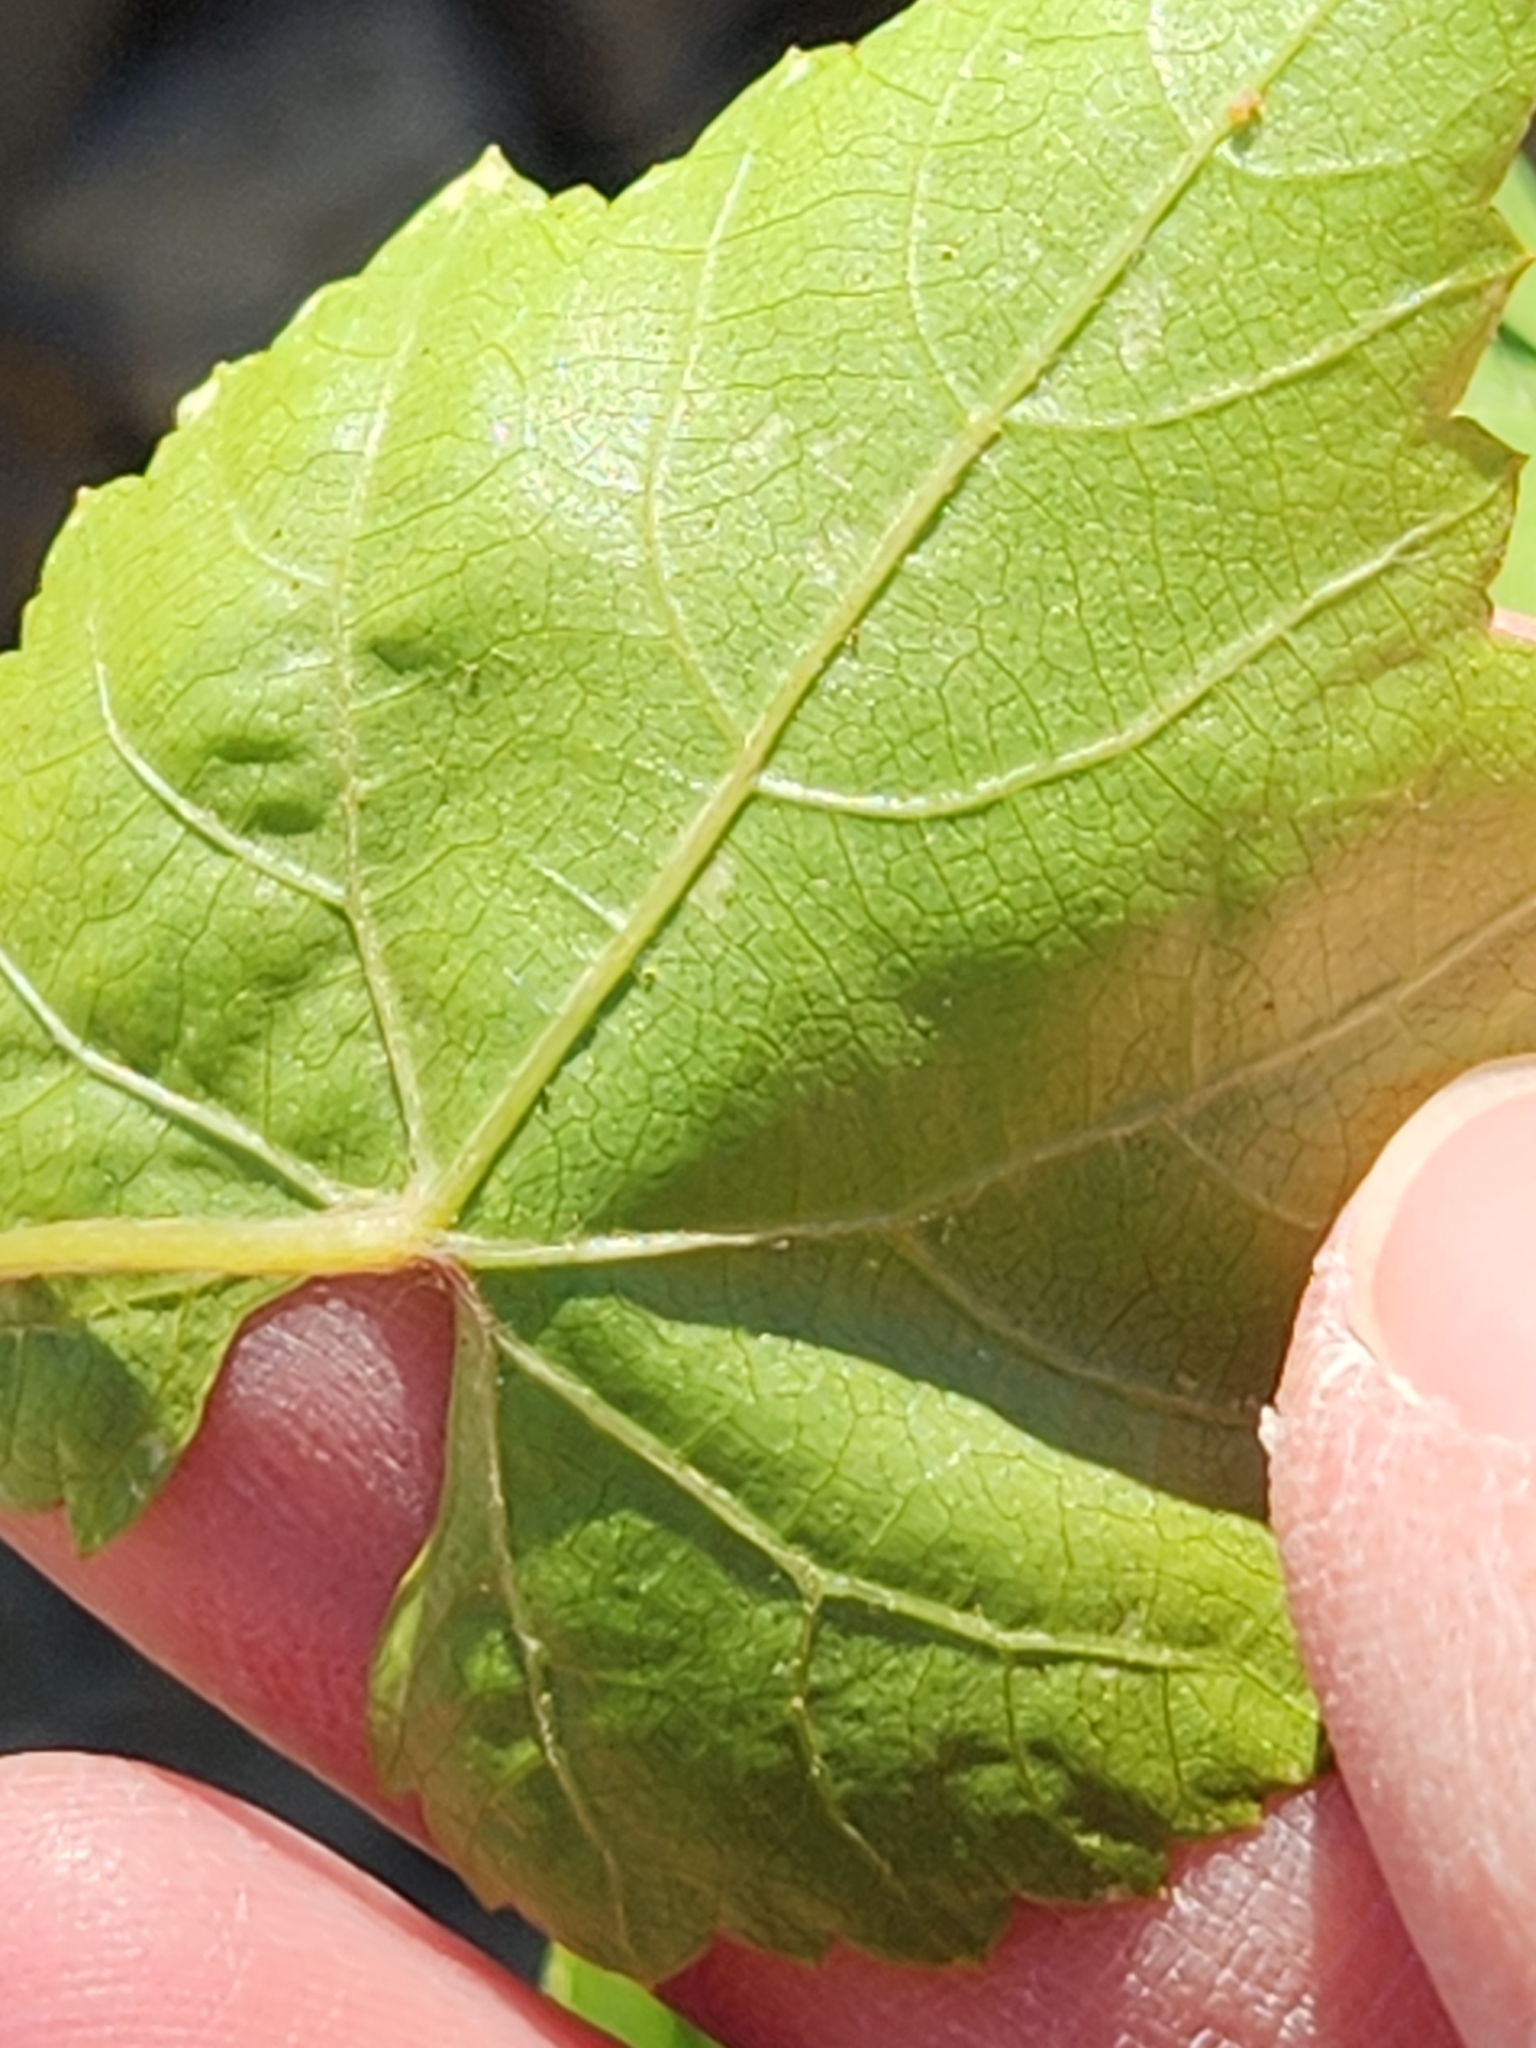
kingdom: Plantae
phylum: Tracheophyta
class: Magnoliopsida
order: Vitales
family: Vitaceae
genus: Vitis
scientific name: Vitis monticola
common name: Mountain grape
